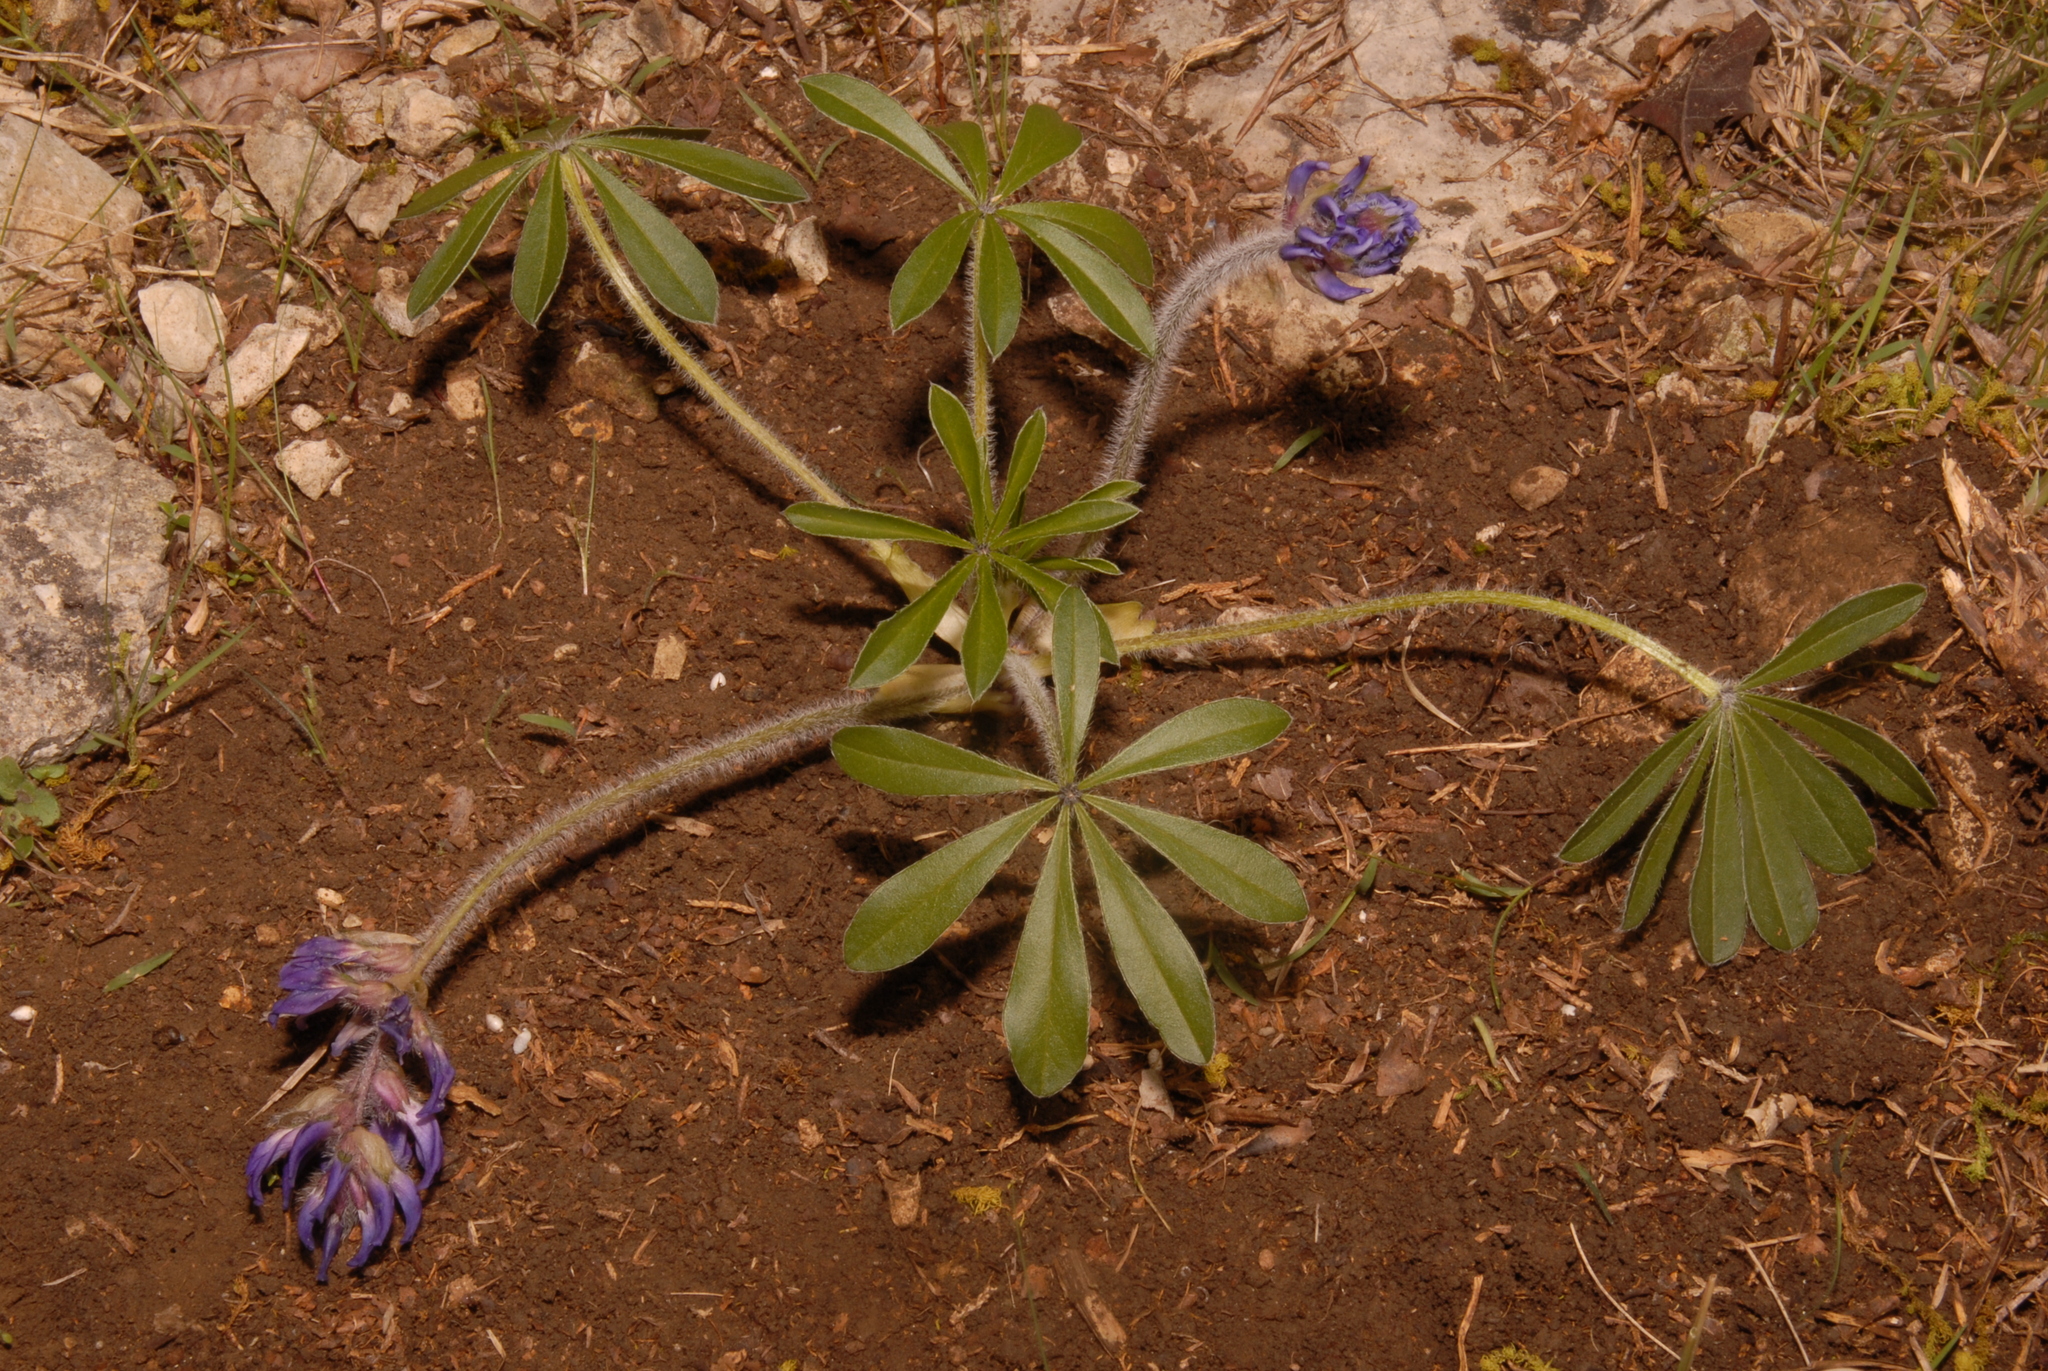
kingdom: Plantae
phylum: Tracheophyta
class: Magnoliopsida
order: Fabales
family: Fabaceae
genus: Pediomelum
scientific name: Pediomelum subacaule
